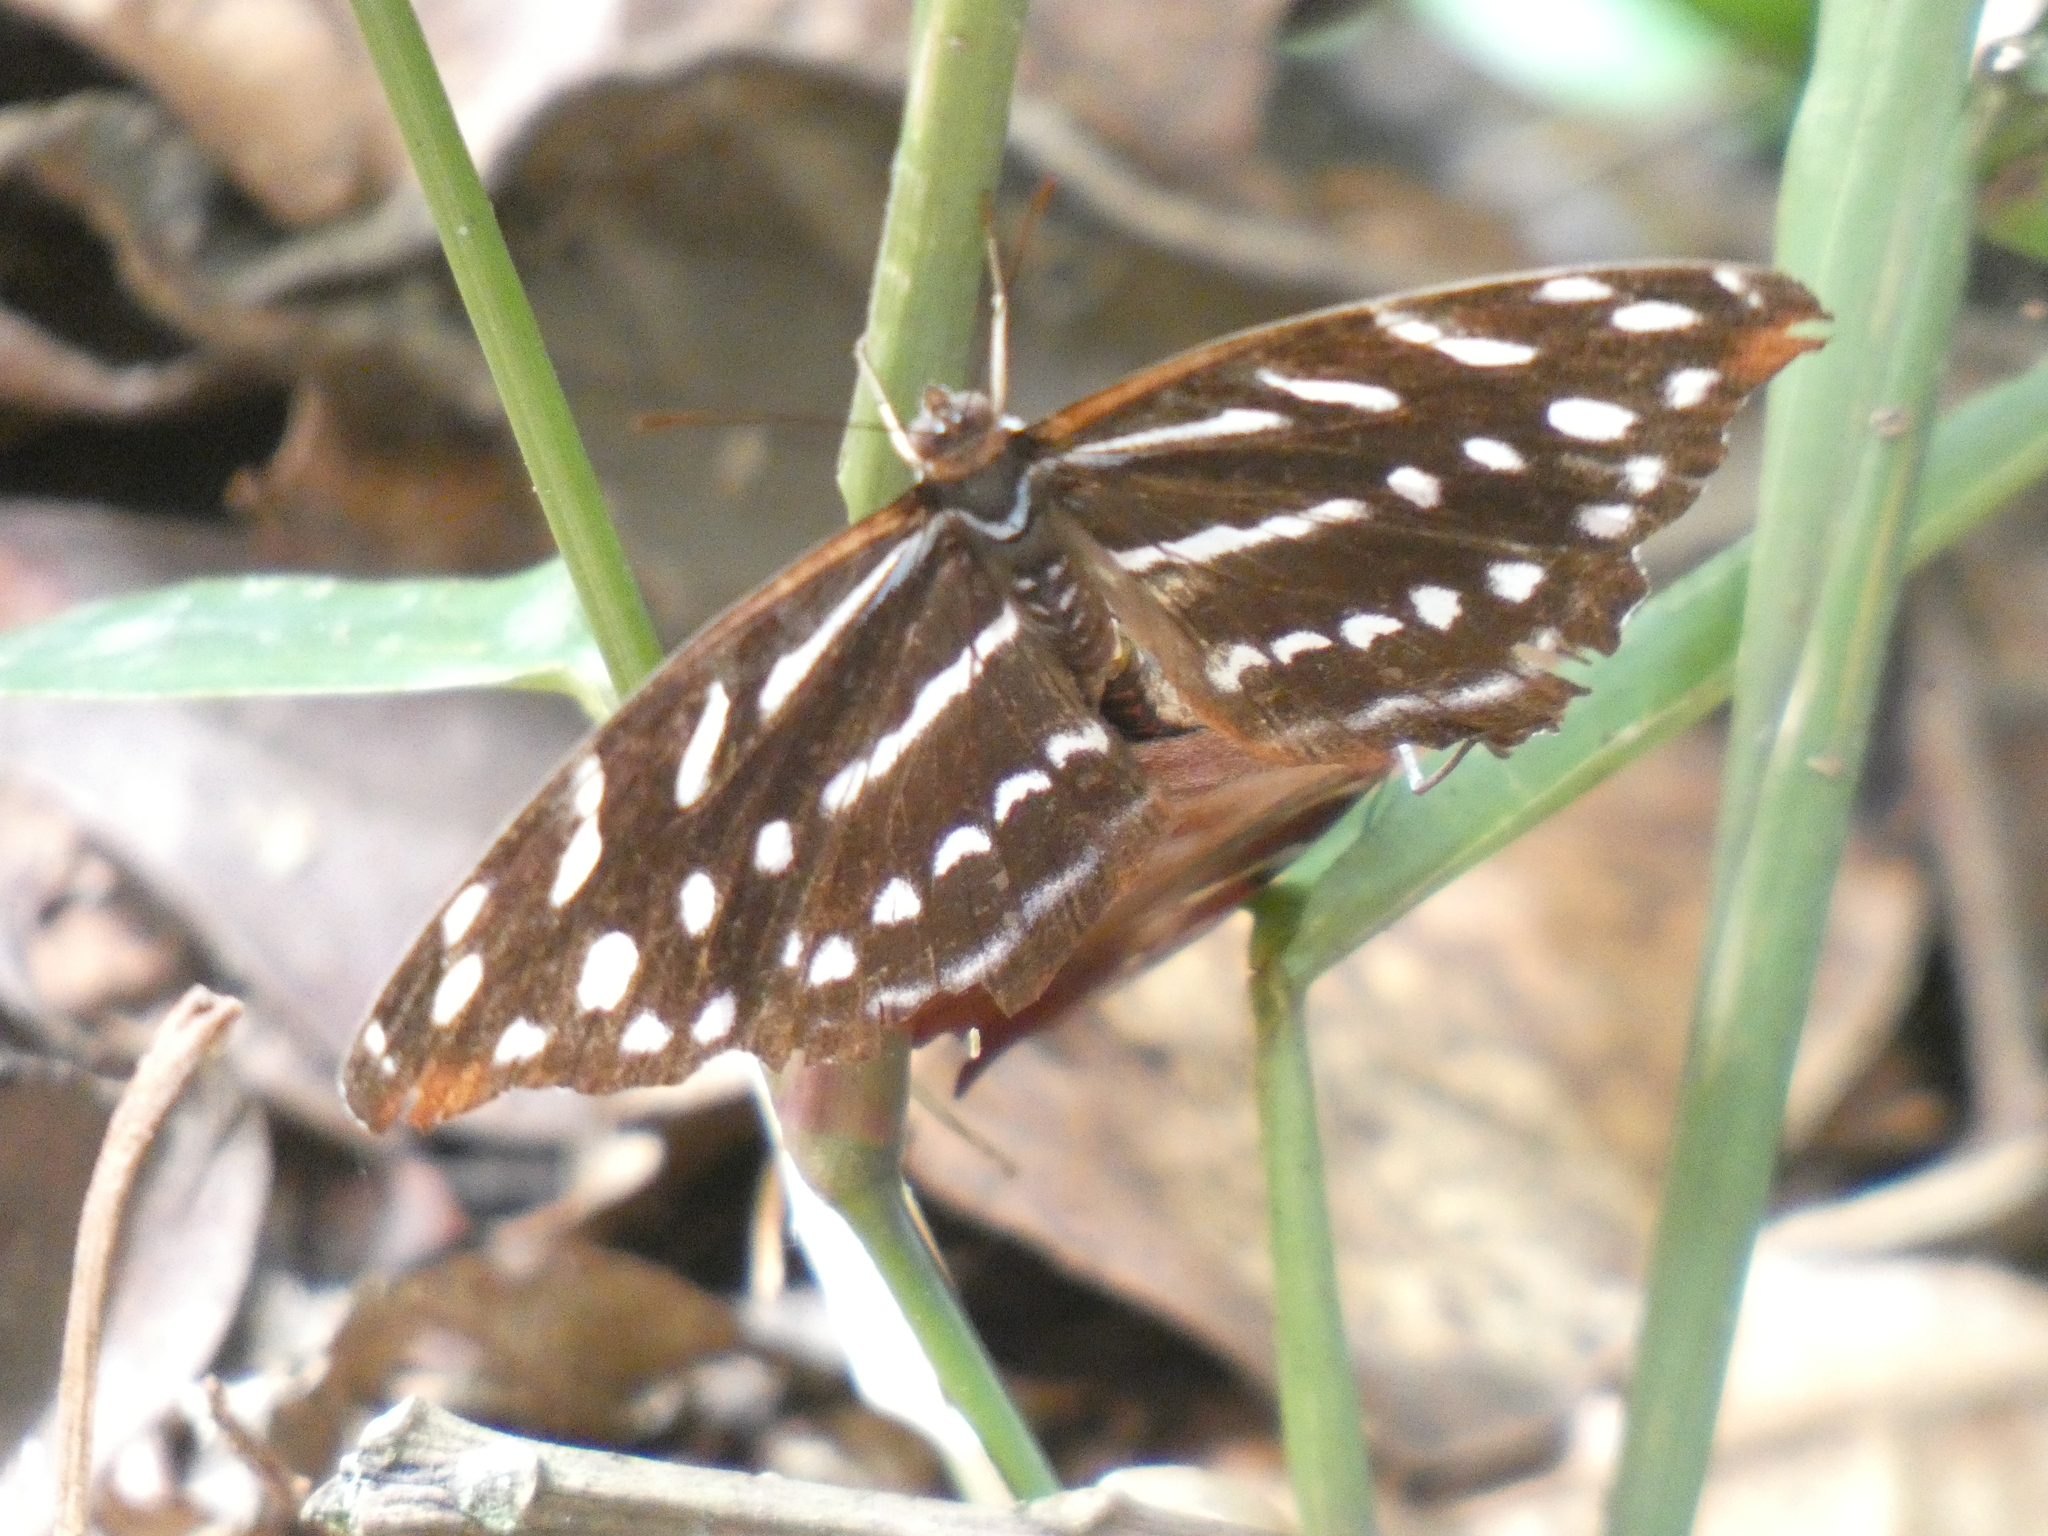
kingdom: Animalia
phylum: Arthropoda
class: Insecta
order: Lepidoptera
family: Nymphalidae
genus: Myscelia
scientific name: Myscelia orsis
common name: Orsis bluewing
